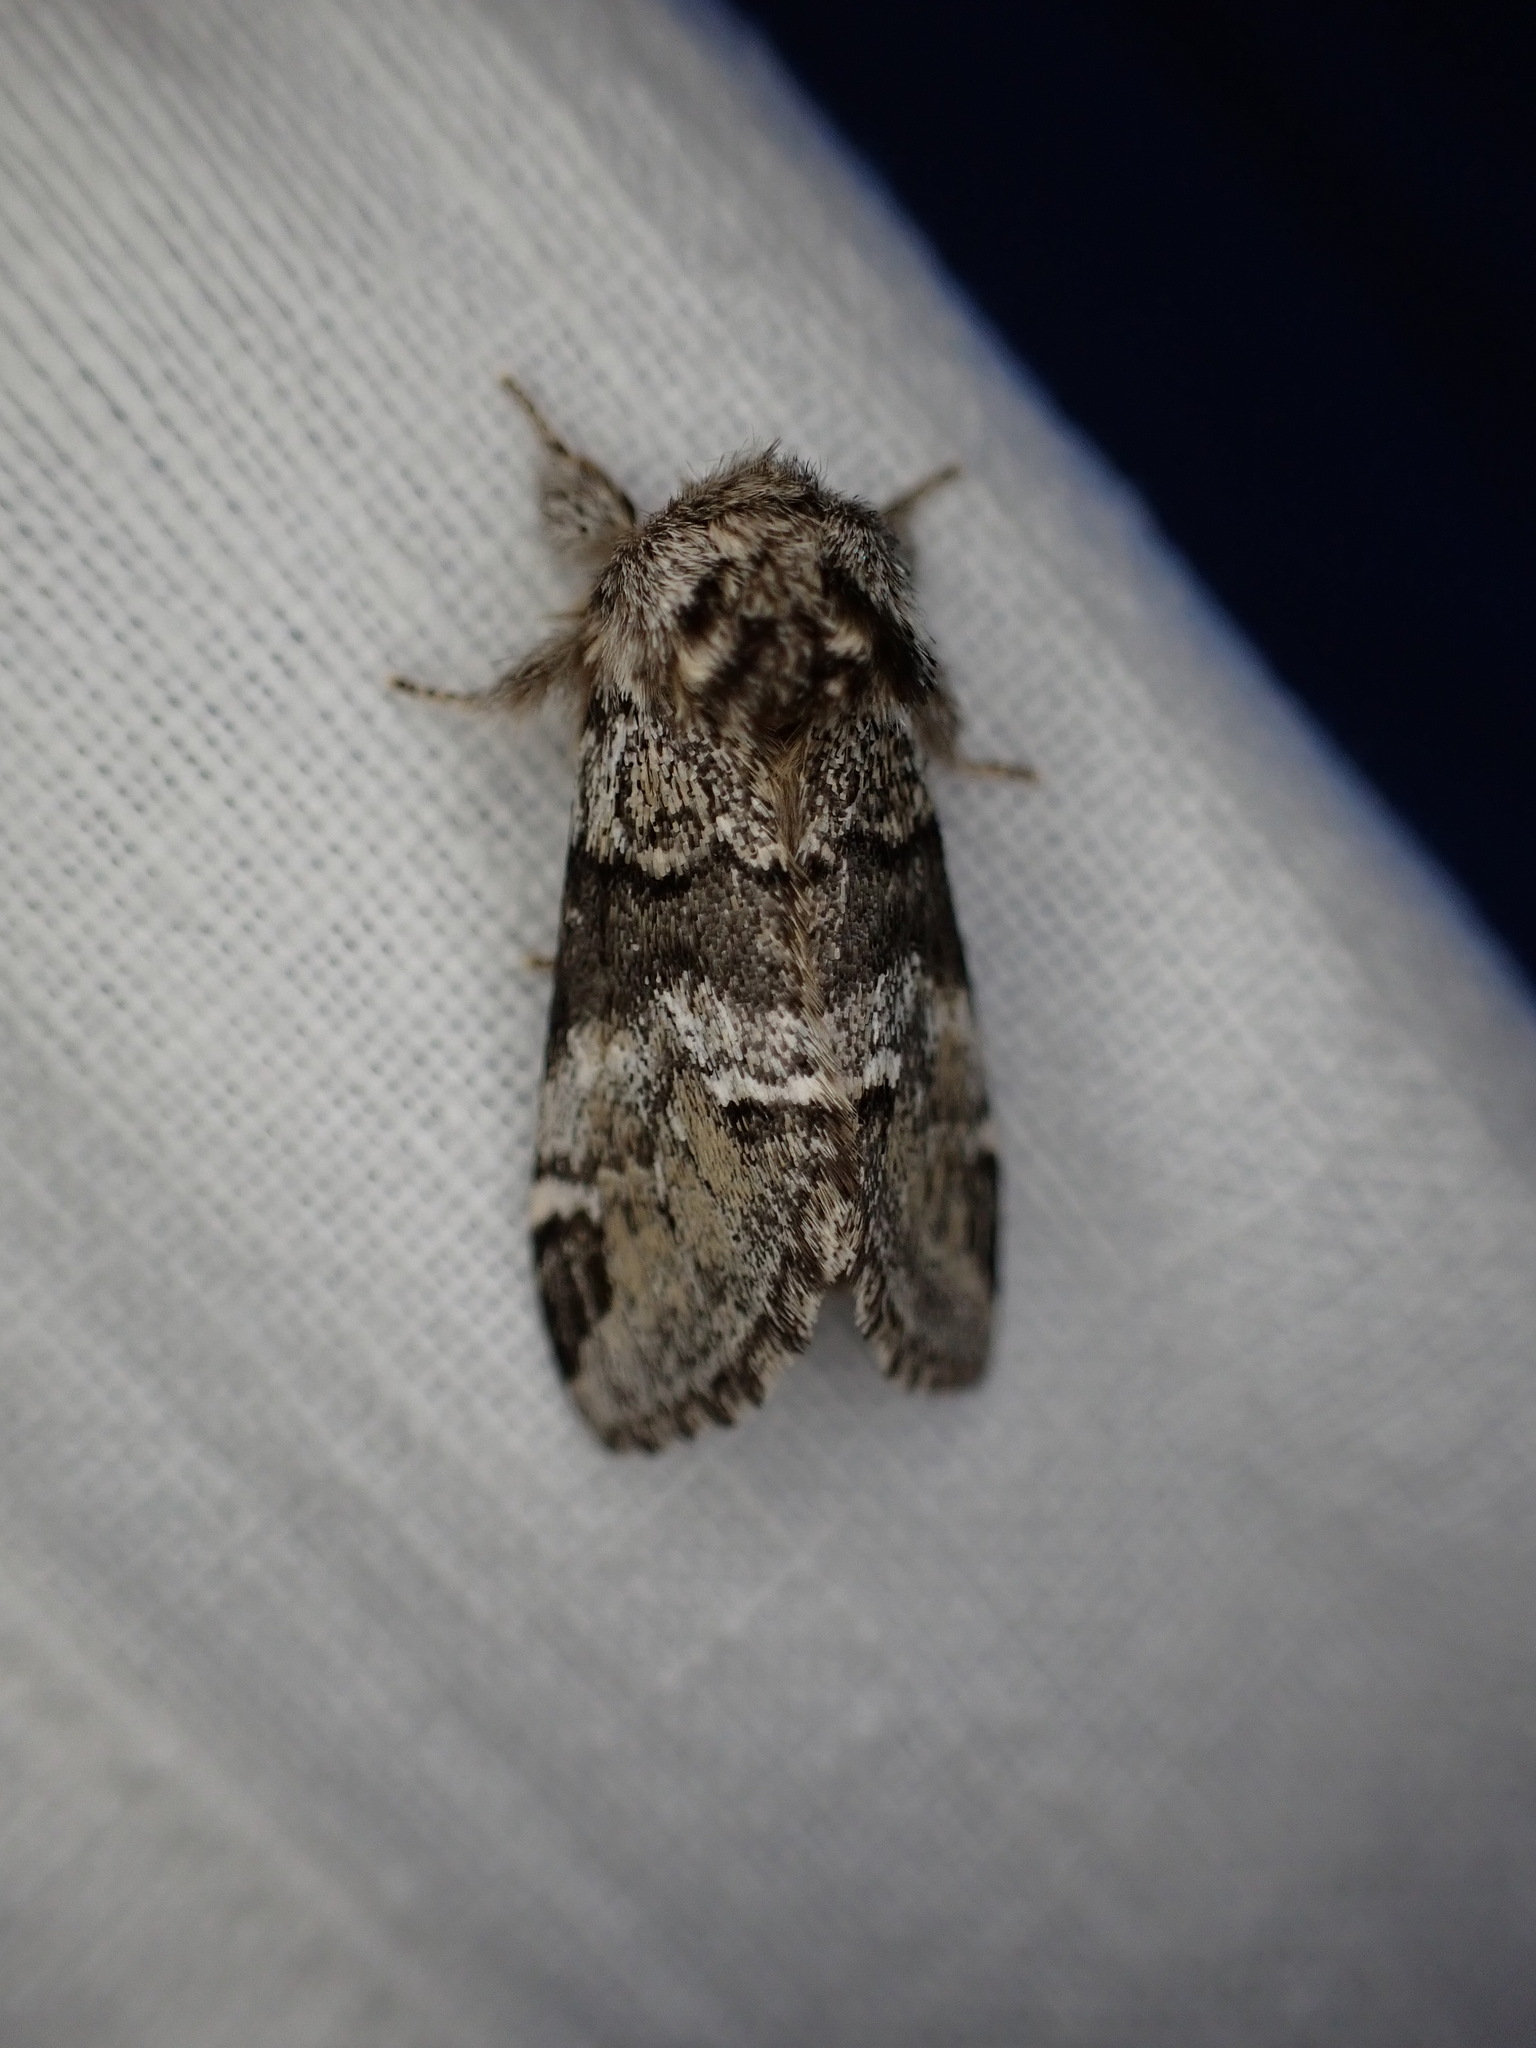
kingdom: Animalia
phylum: Arthropoda
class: Insecta
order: Lepidoptera
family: Notodontidae
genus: Drymonia
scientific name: Drymonia dodonaea
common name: Marbled brown
